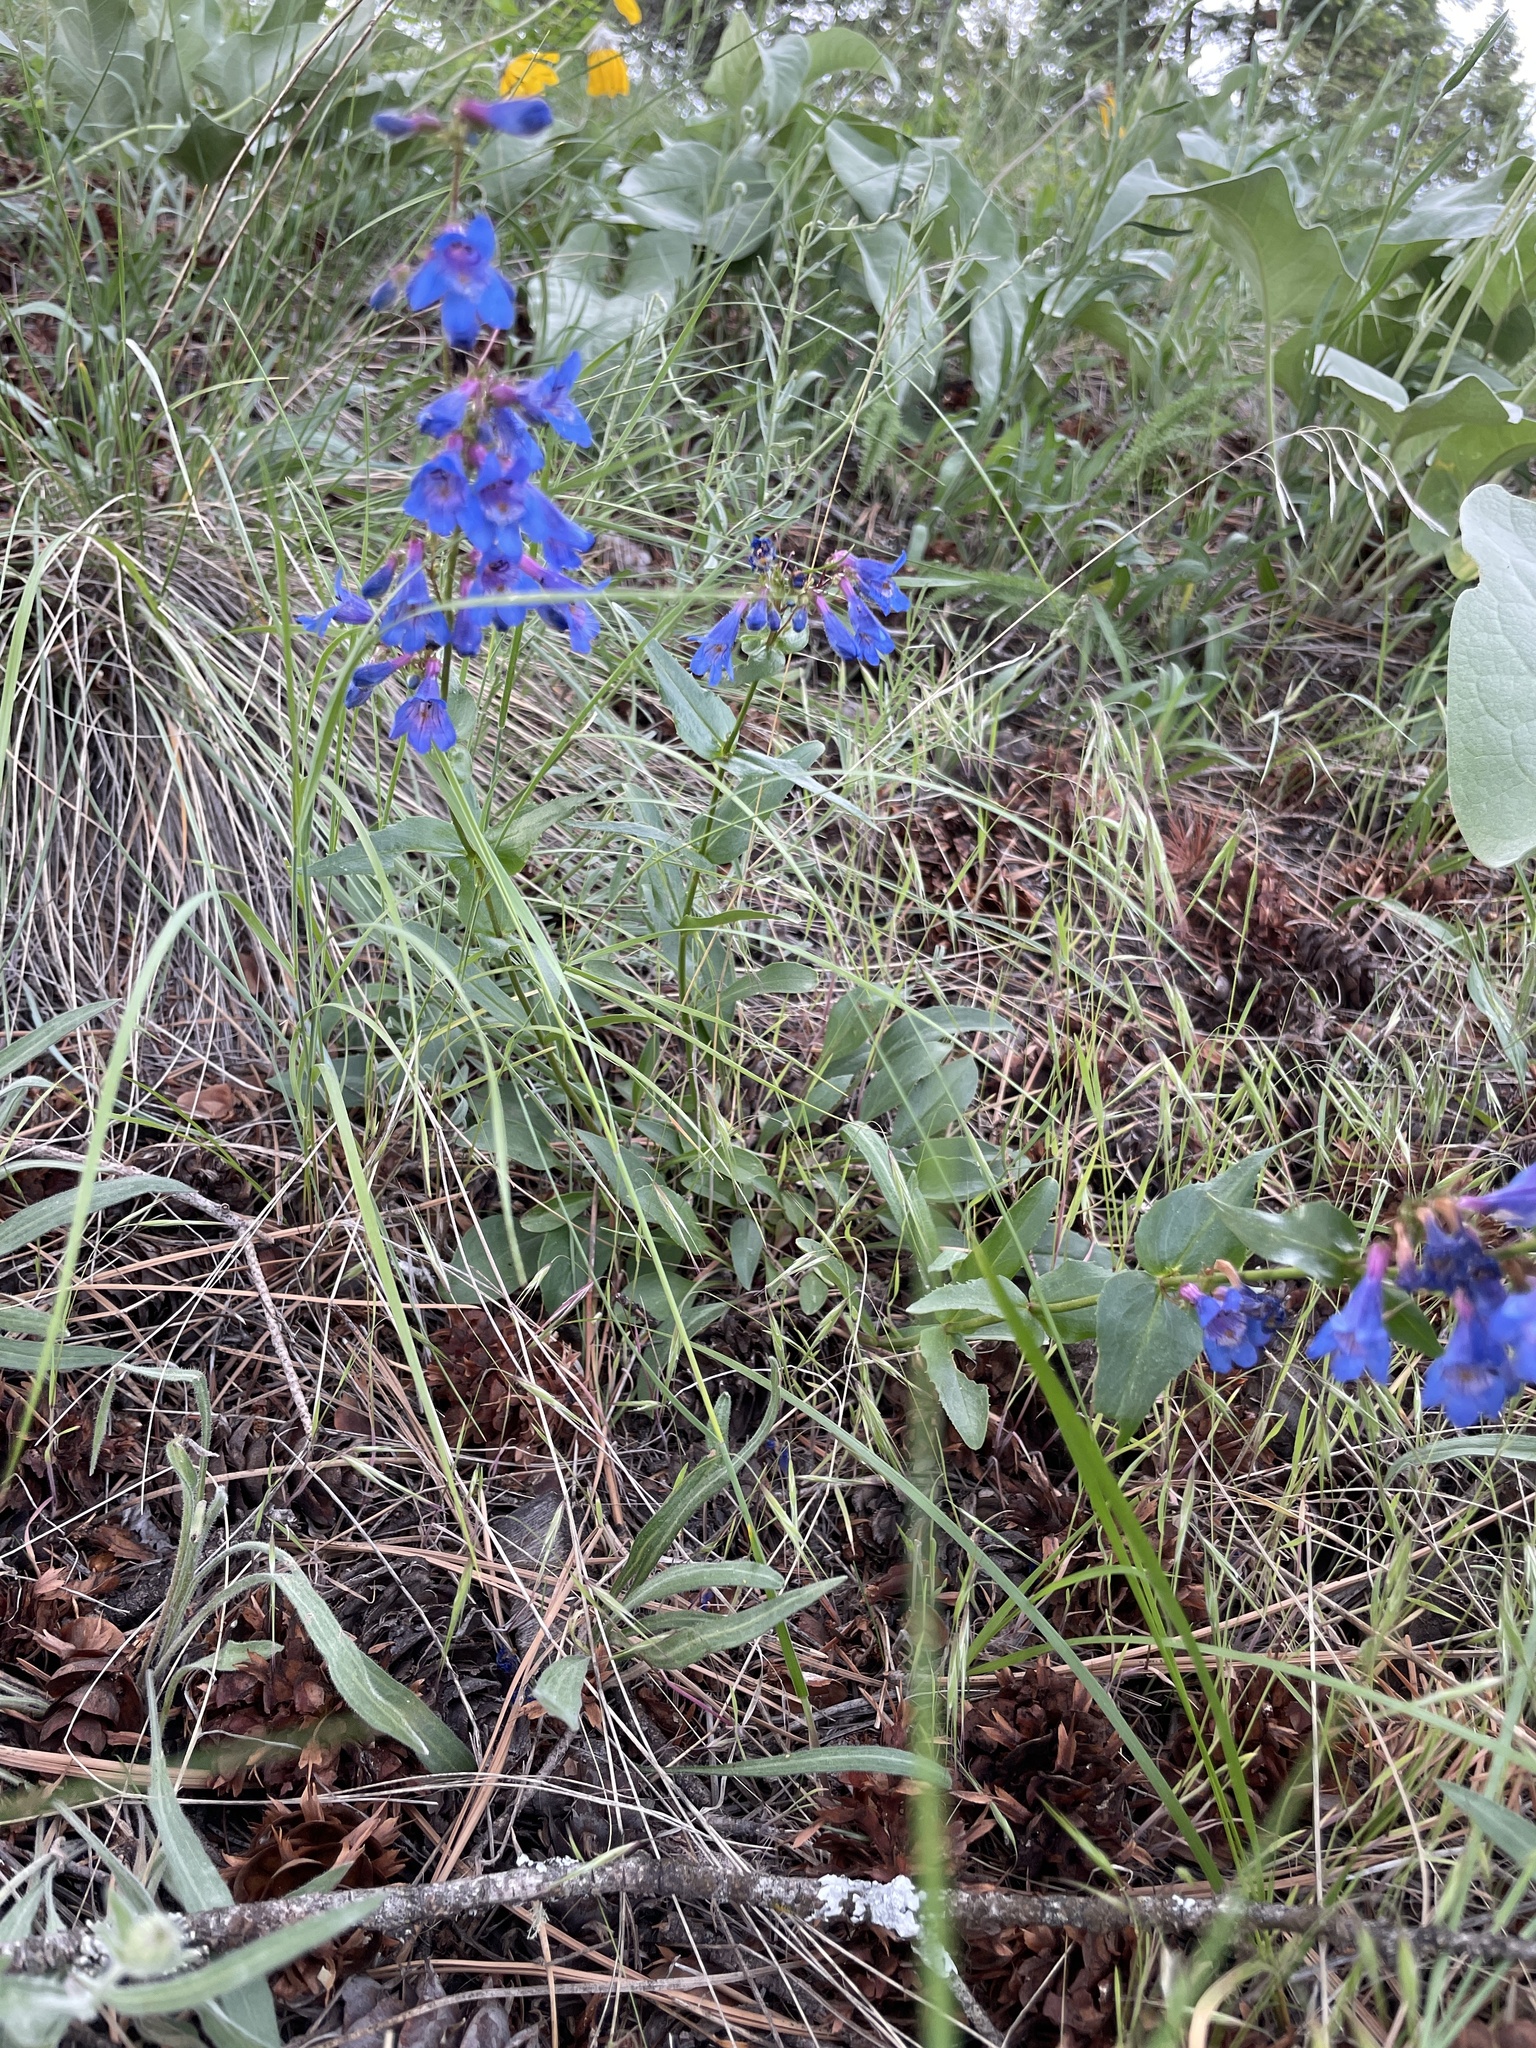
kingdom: Plantae
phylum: Tracheophyta
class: Magnoliopsida
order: Lamiales
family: Plantaginaceae
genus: Penstemon
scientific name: Penstemon wilcoxii
